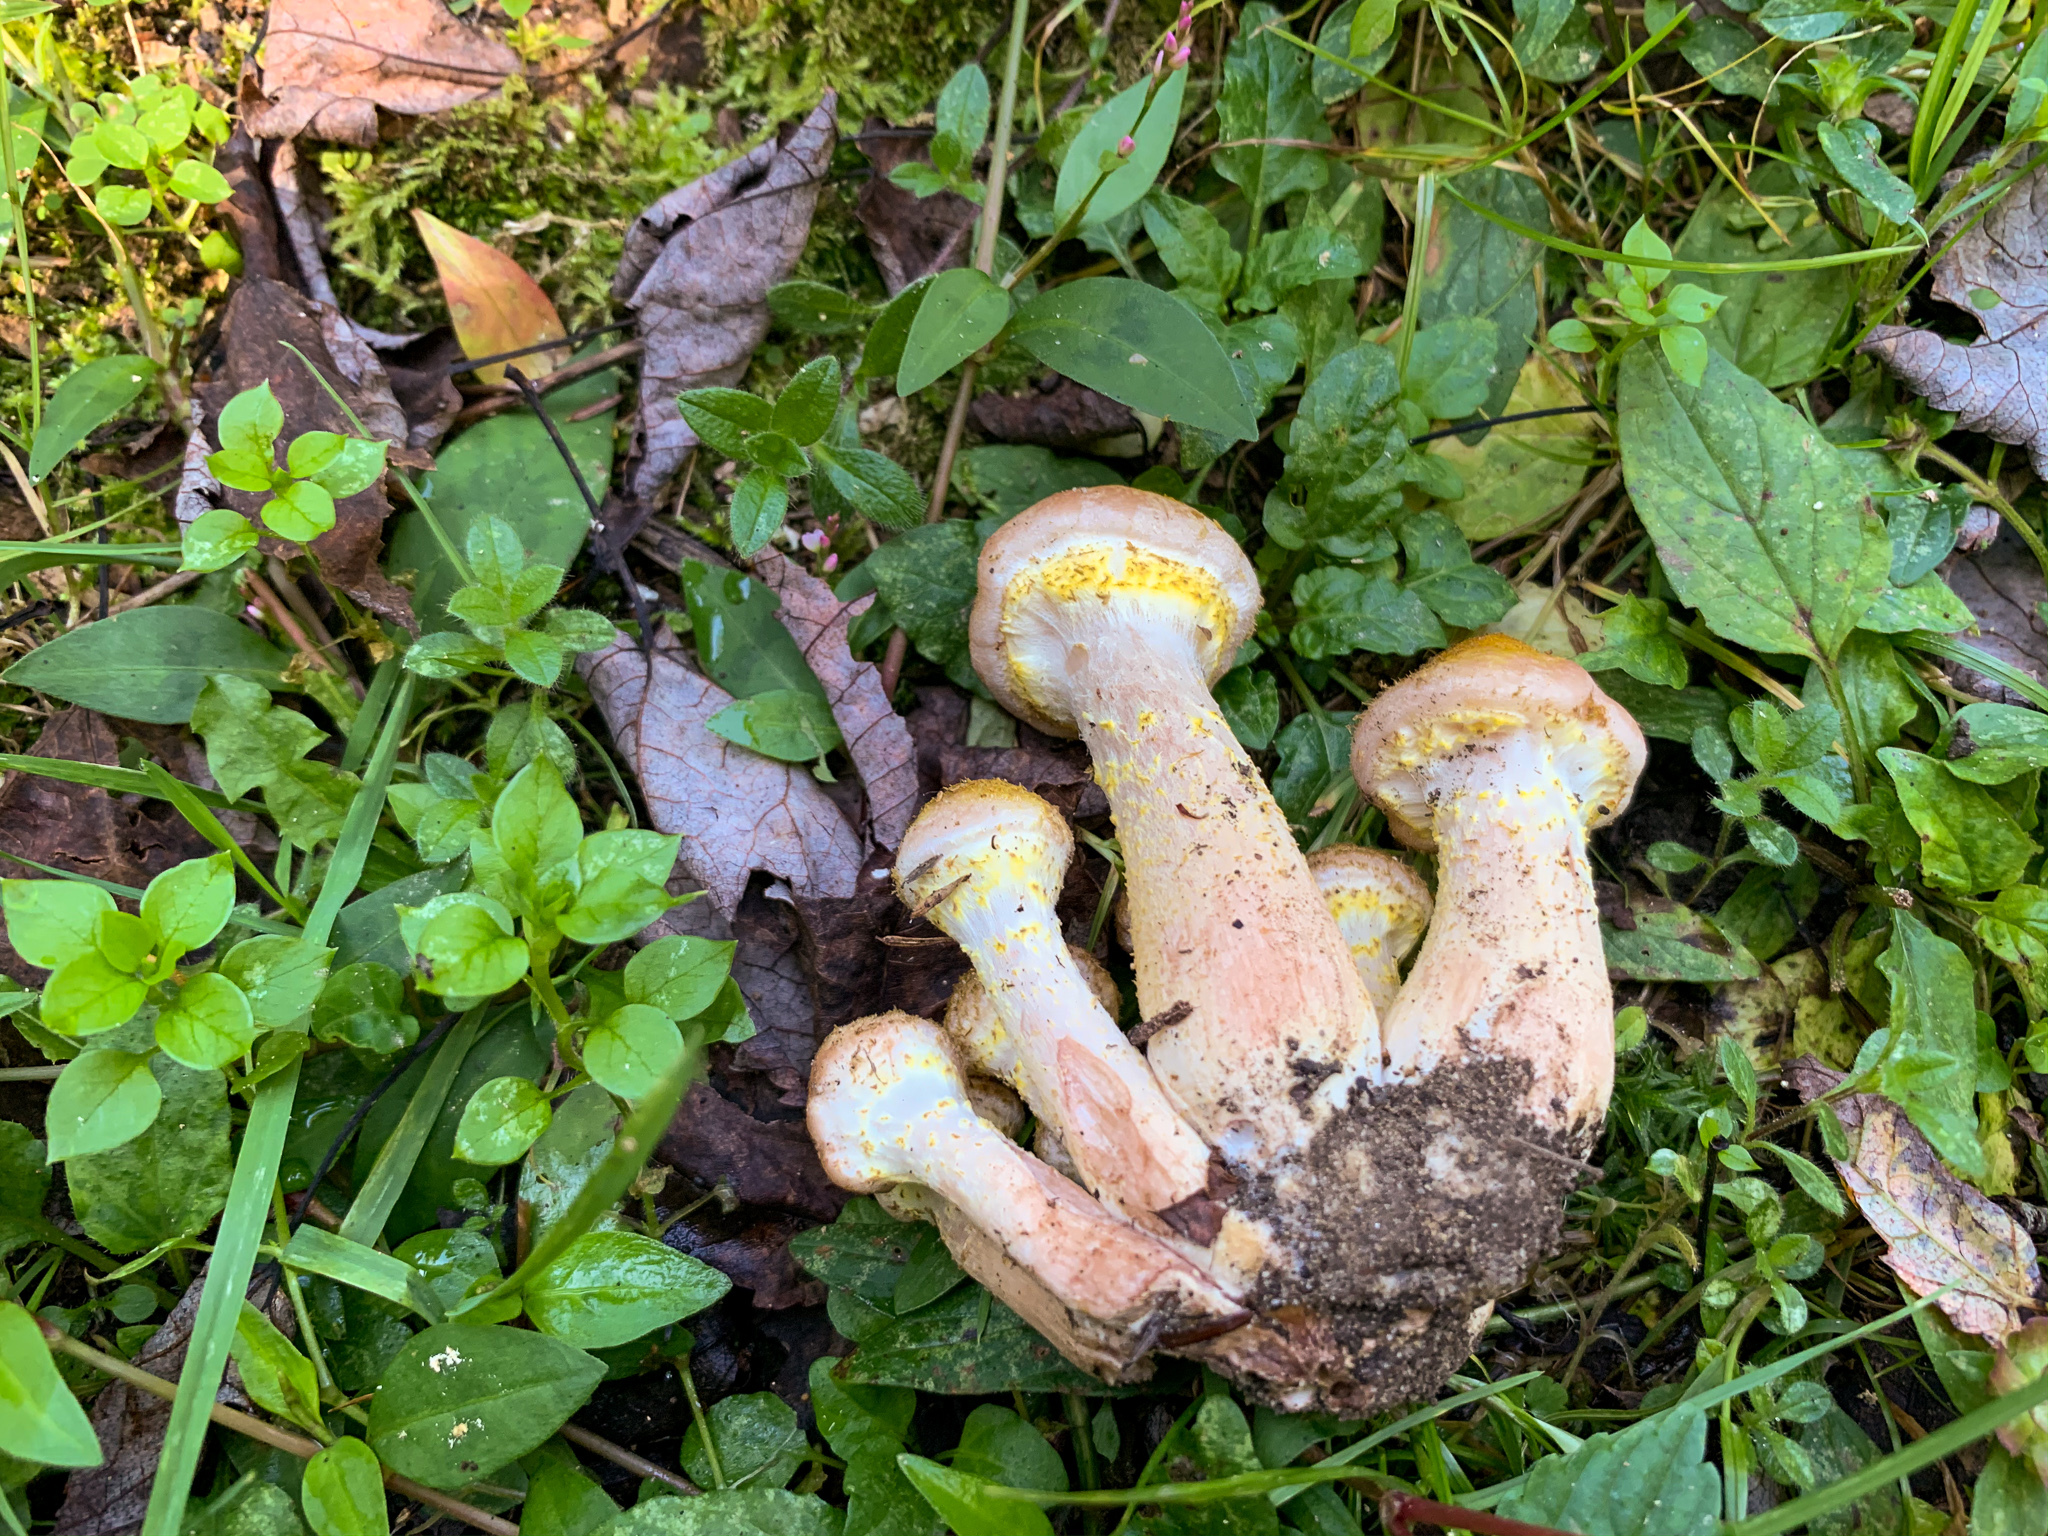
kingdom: Fungi
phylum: Basidiomycota
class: Agaricomycetes
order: Agaricales
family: Physalacriaceae
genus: Armillaria
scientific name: Armillaria sinapina
